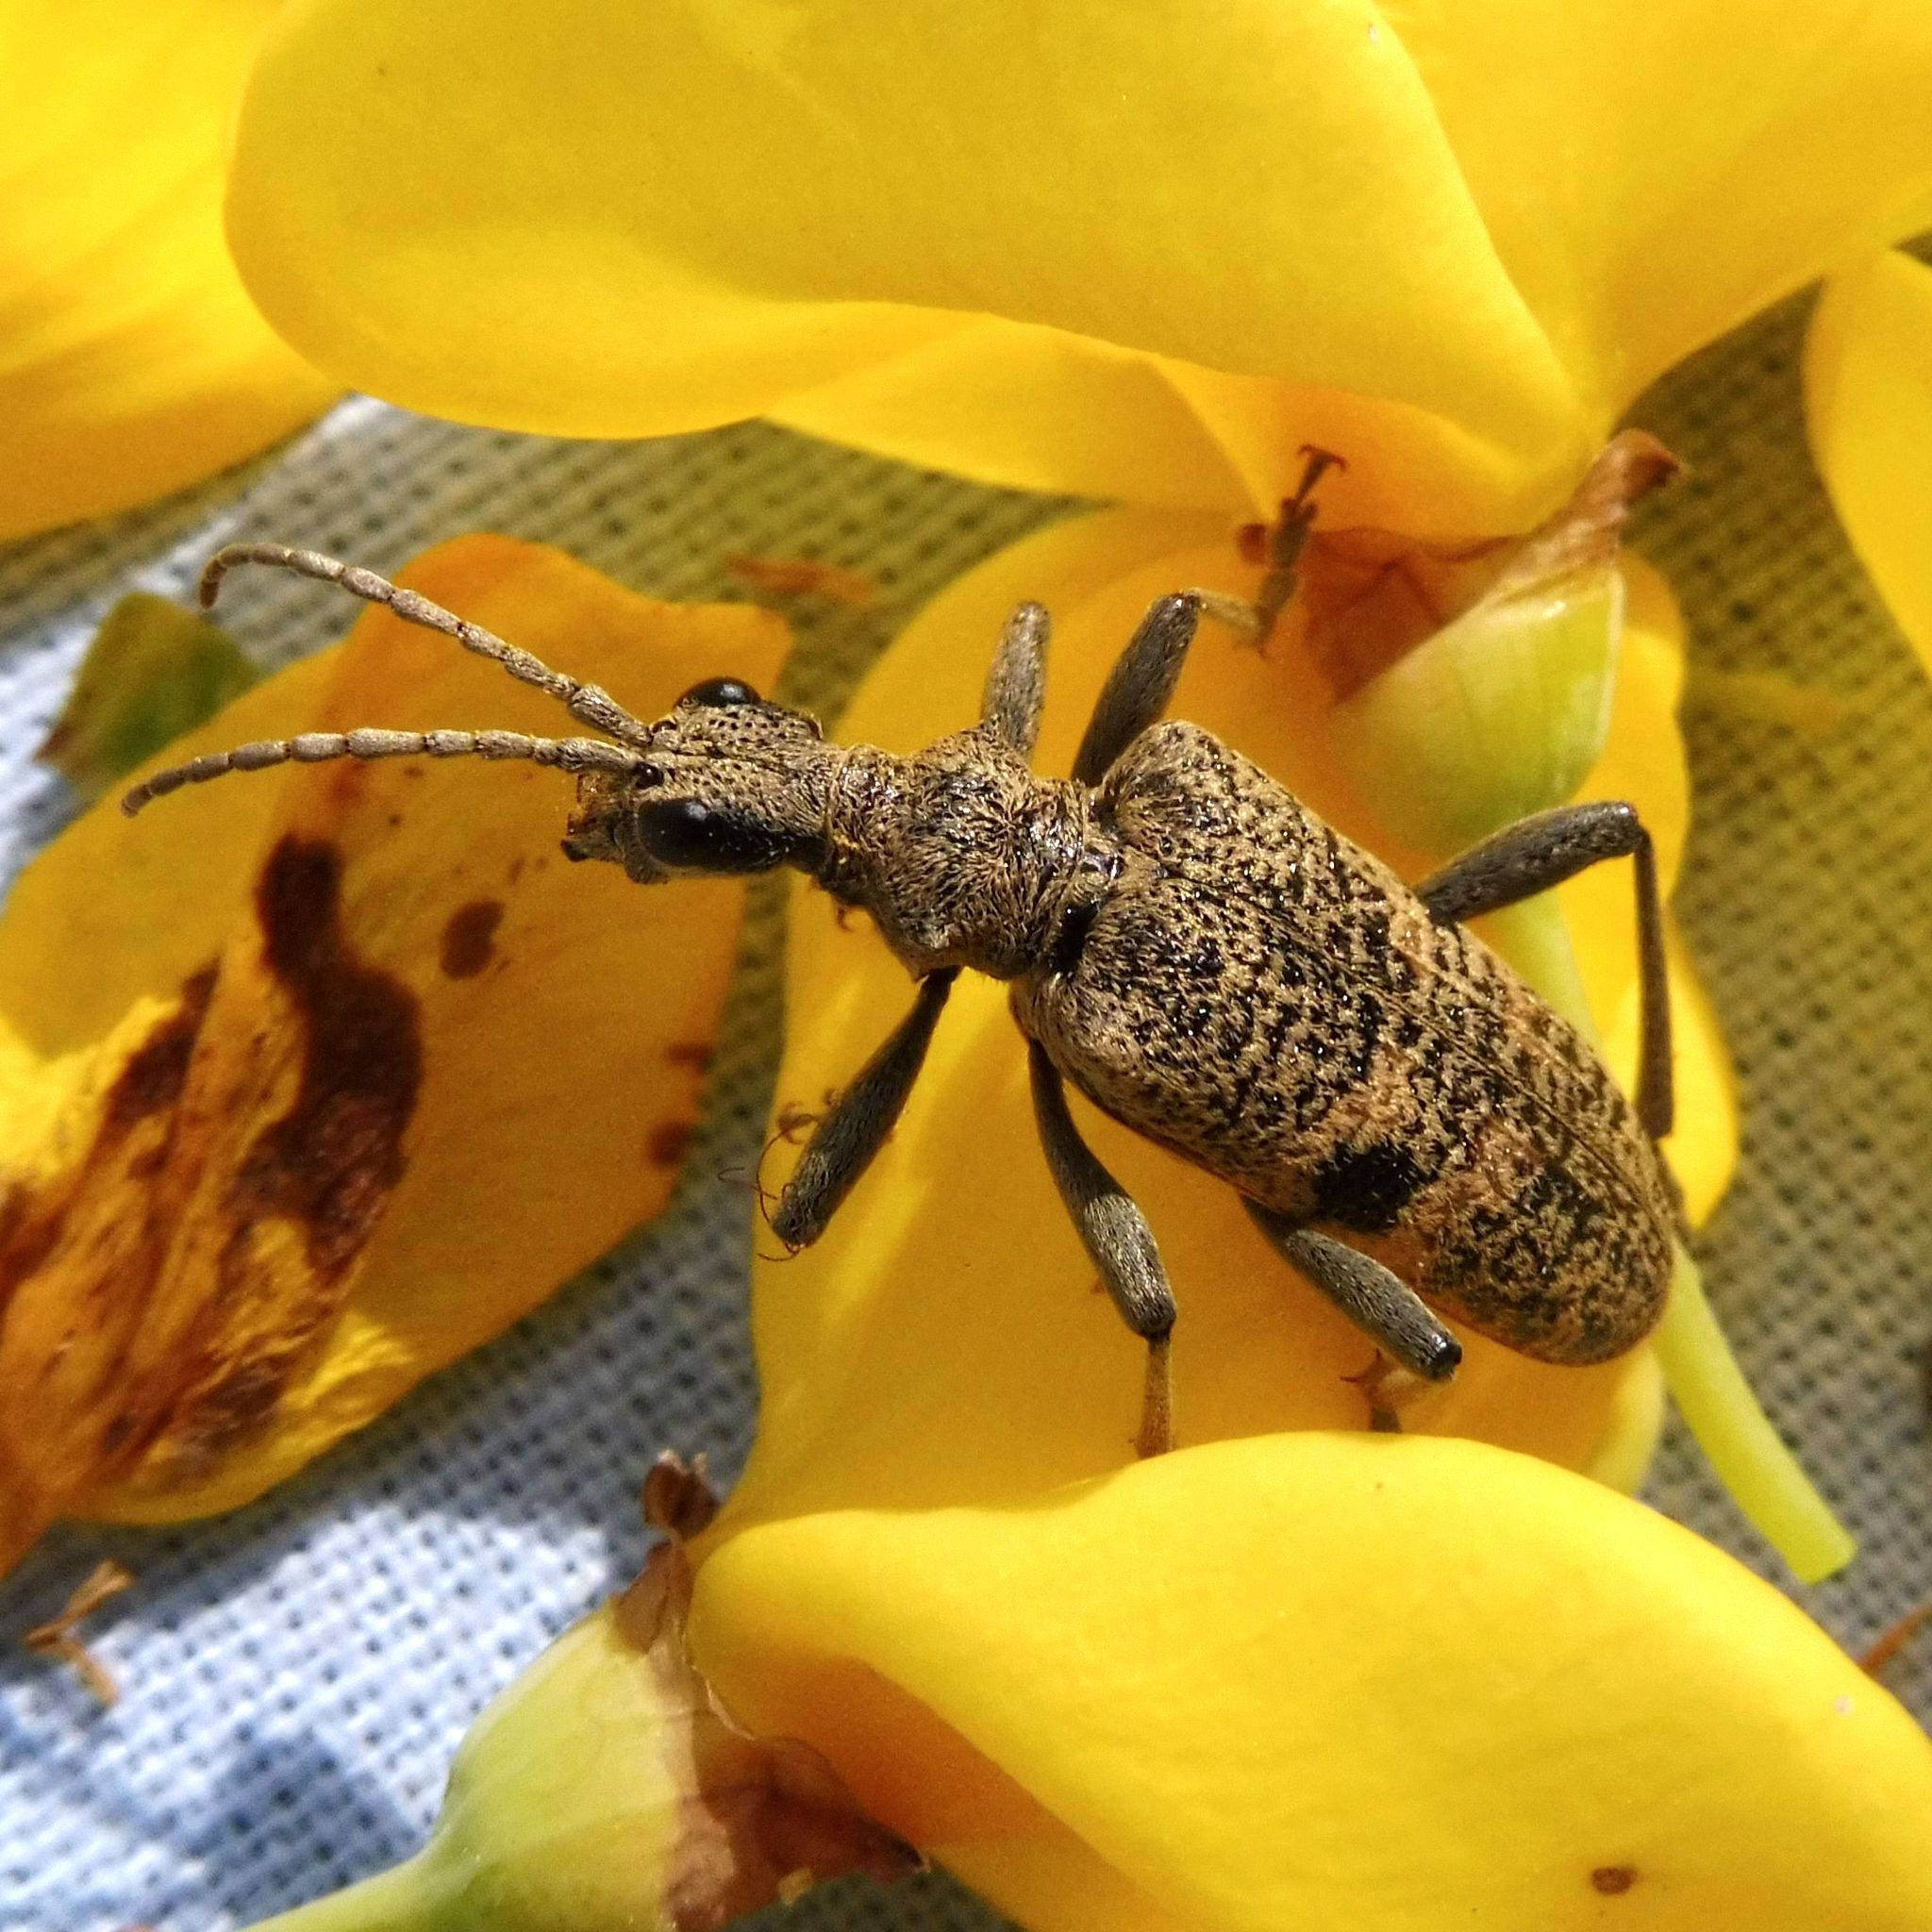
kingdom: Animalia
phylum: Arthropoda
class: Insecta
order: Coleoptera
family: Cerambycidae
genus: Rhagium
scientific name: Rhagium mordax
